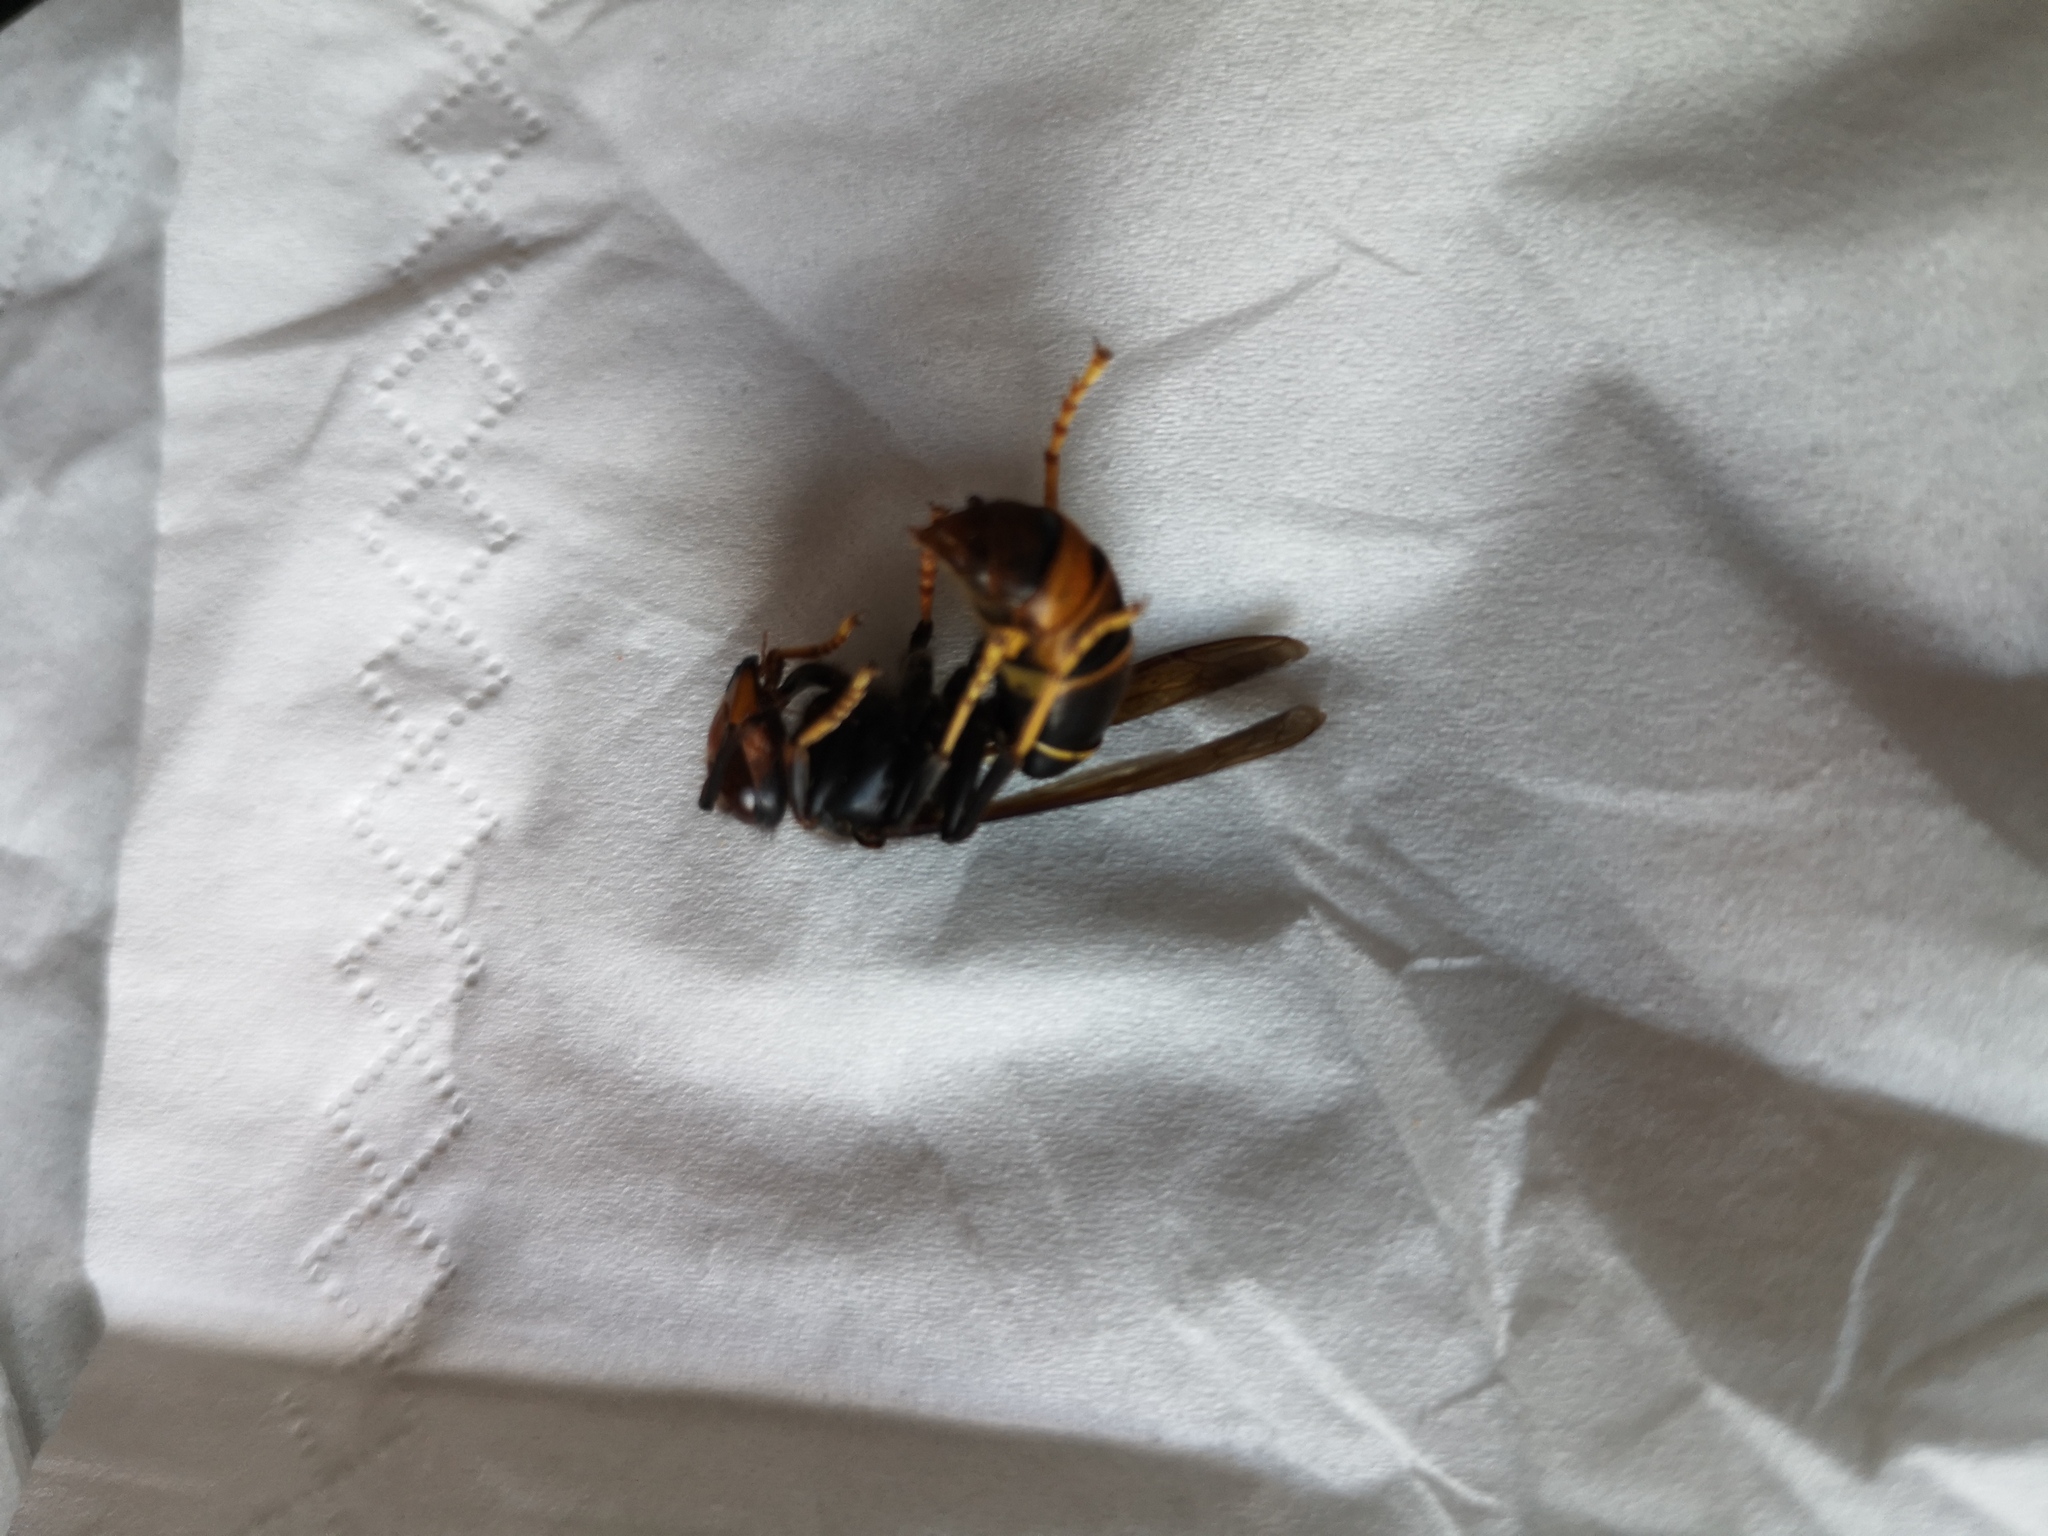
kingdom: Animalia
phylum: Arthropoda
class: Insecta
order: Hymenoptera
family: Vespidae
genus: Vespa
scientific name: Vespa velutina
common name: Asian hornet
